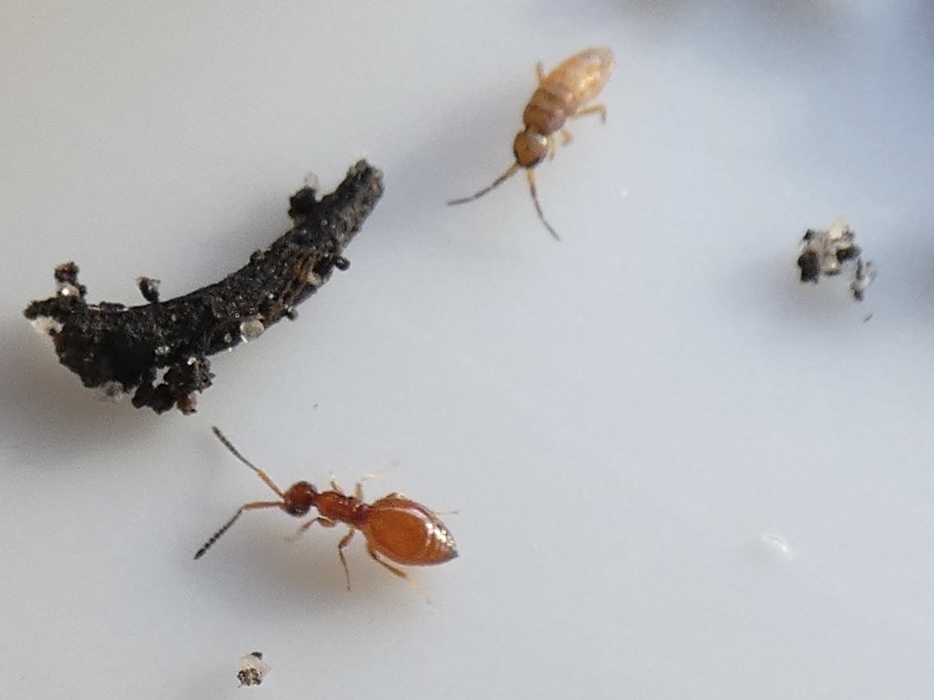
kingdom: Animalia
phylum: Arthropoda
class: Insecta
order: Hymenoptera
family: Megaspilidae
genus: Lagynodes
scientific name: Lagynodes pallidus
